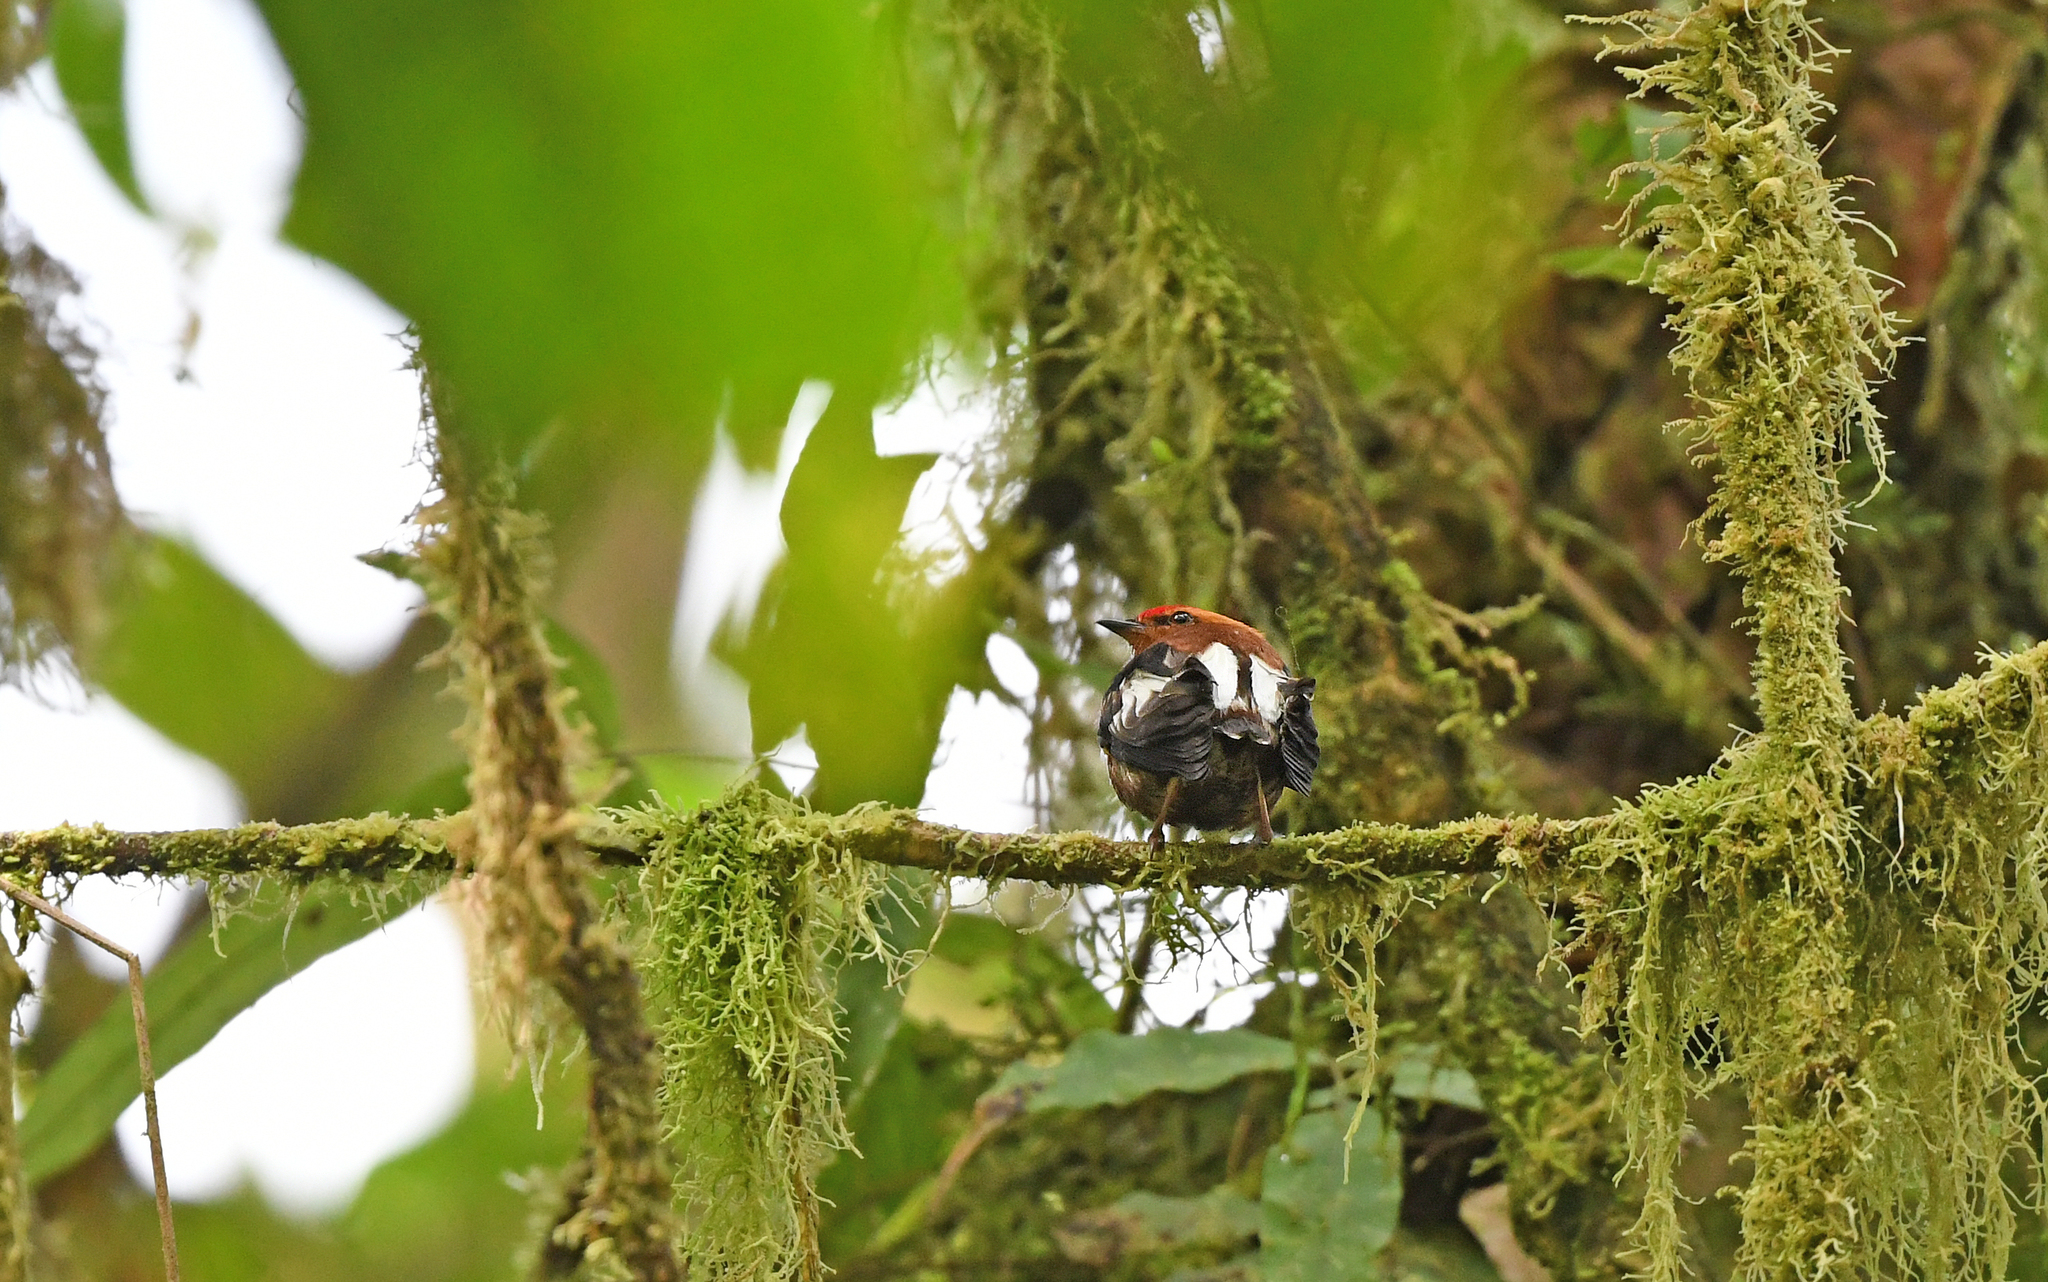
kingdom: Animalia
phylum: Chordata
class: Aves
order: Passeriformes
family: Pipridae
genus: Machaeropterus
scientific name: Machaeropterus deliciosus
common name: Club-winged manakin
